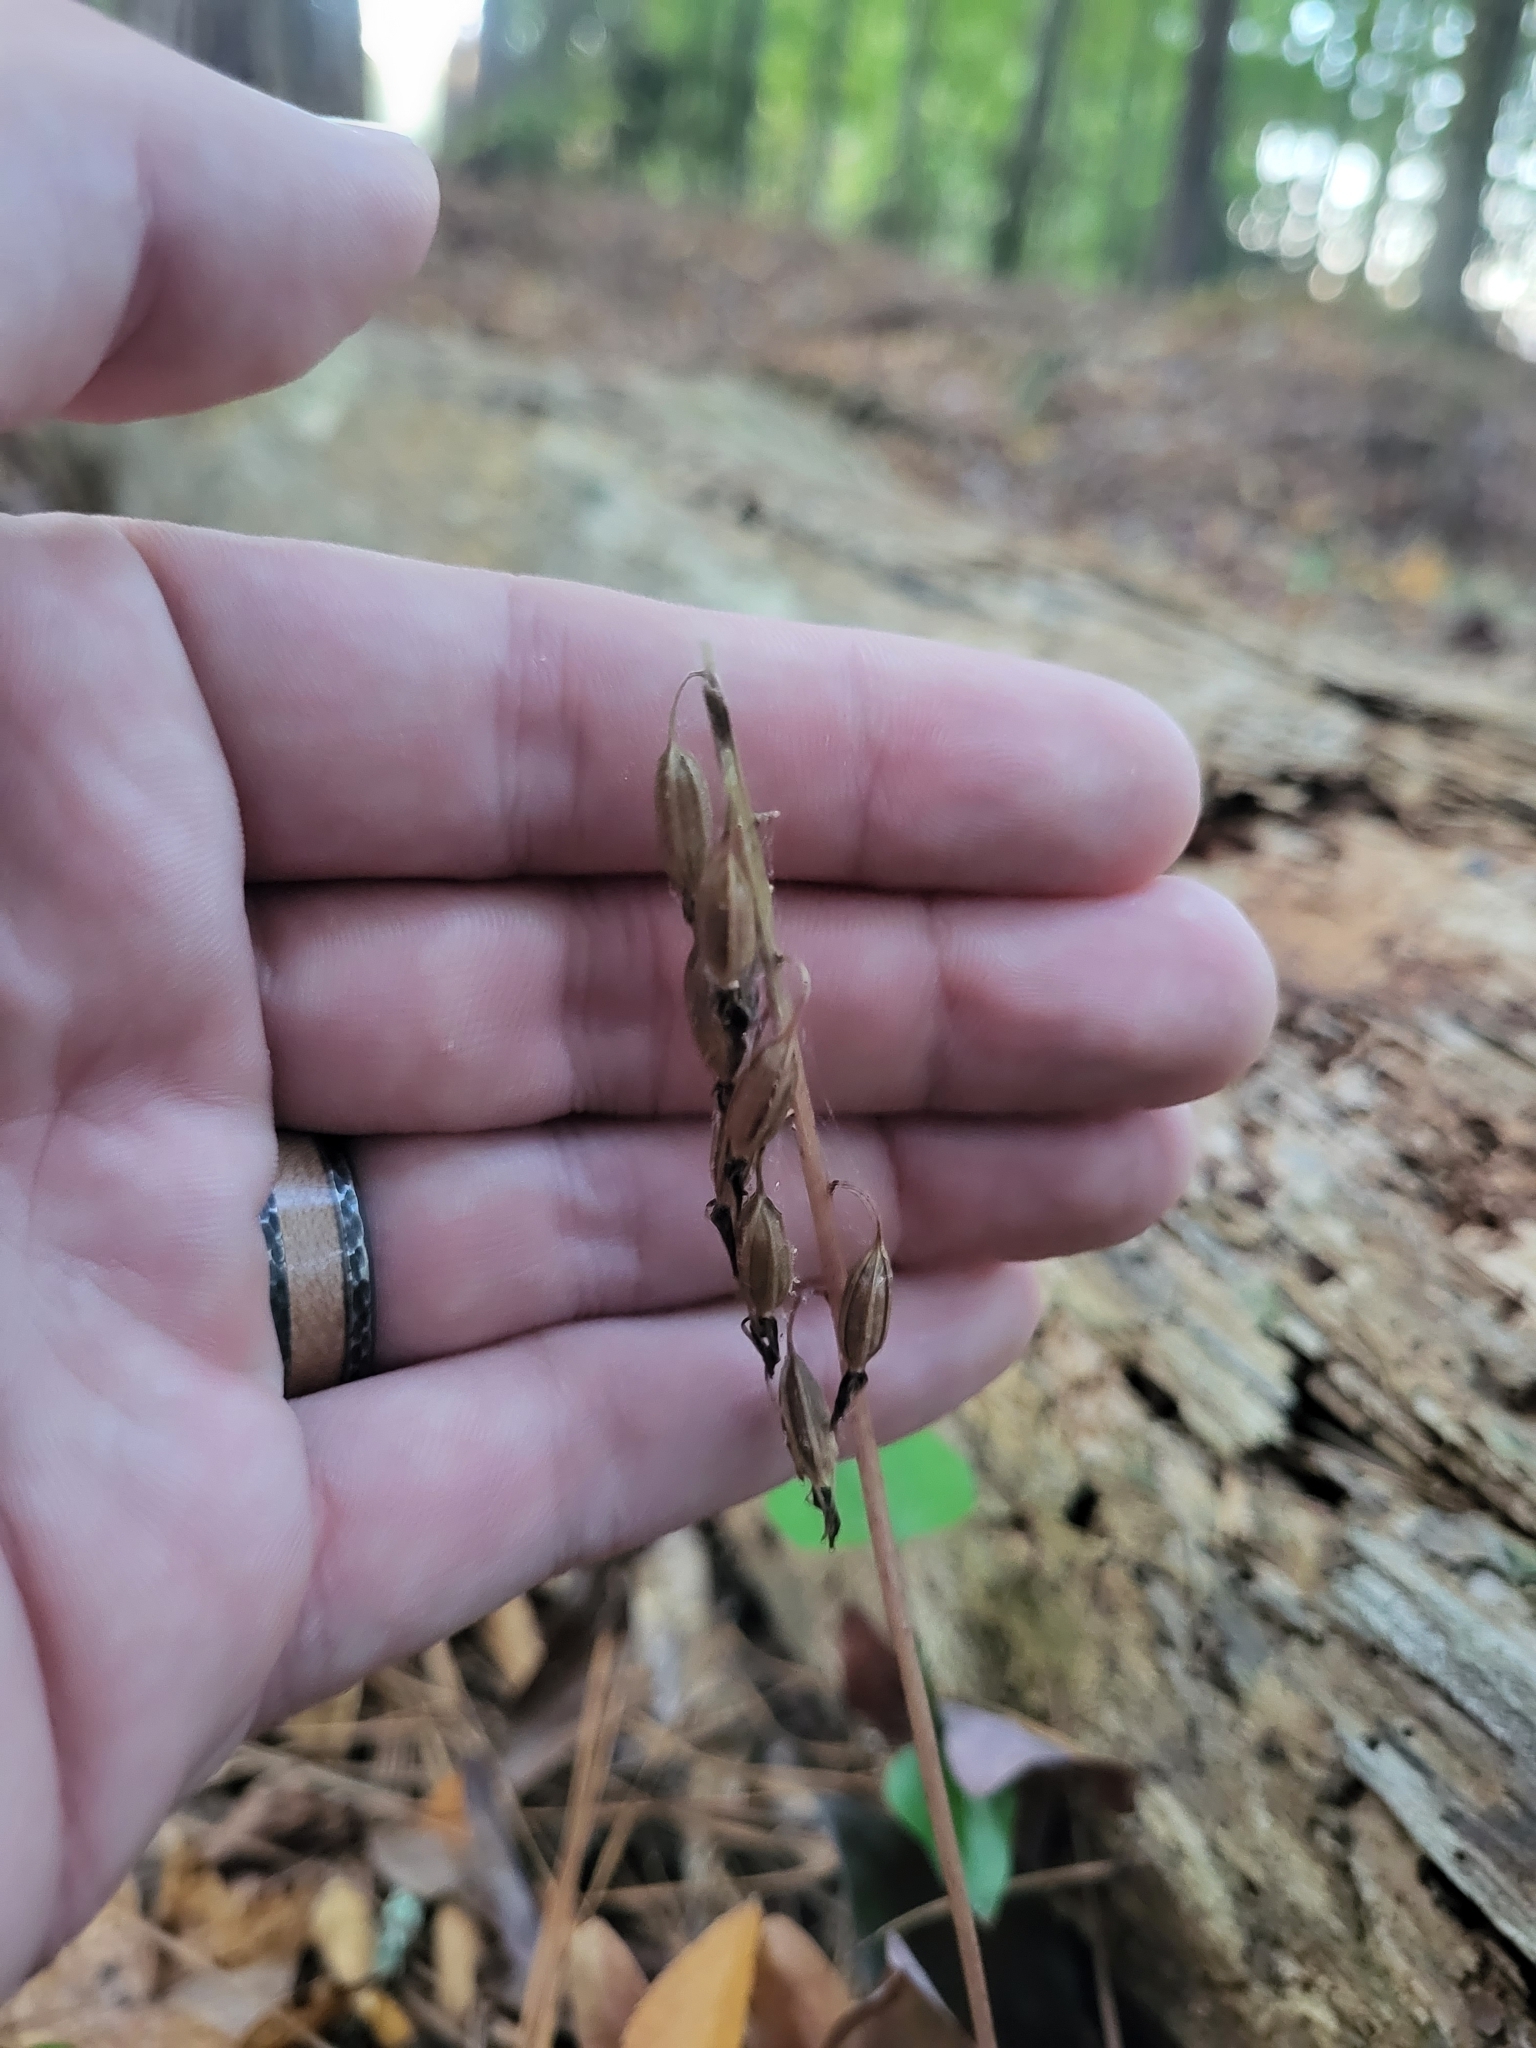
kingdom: Plantae
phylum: Tracheophyta
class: Liliopsida
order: Asparagales
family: Orchidaceae
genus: Tipularia
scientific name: Tipularia discolor
